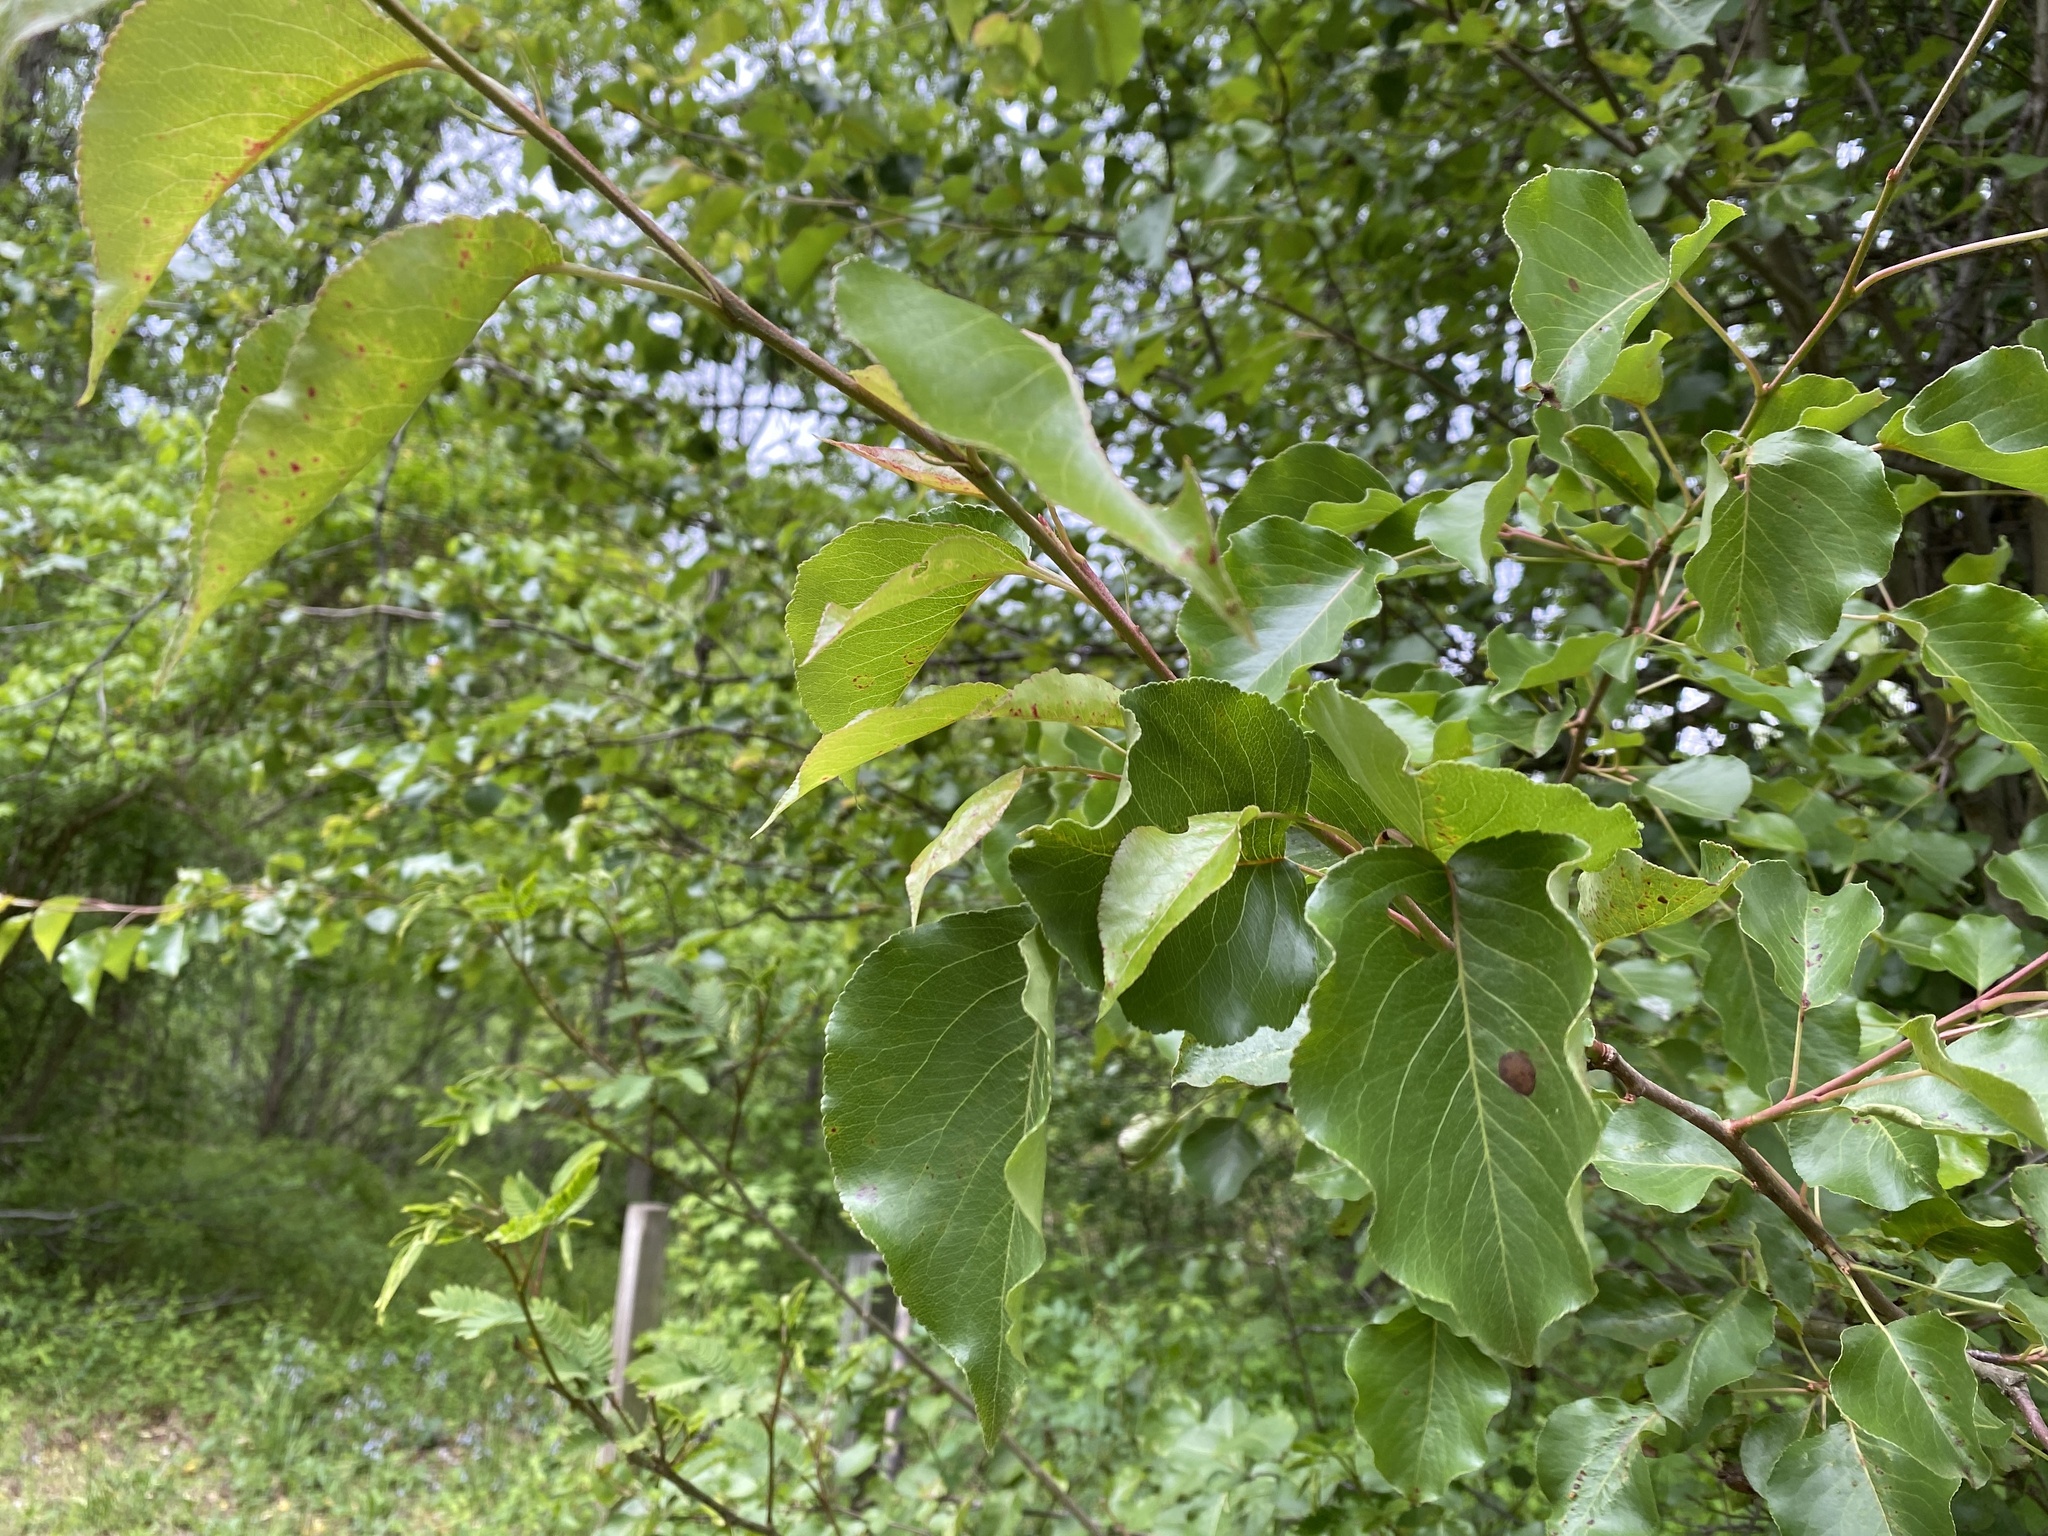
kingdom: Plantae
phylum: Tracheophyta
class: Magnoliopsida
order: Rosales
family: Rosaceae
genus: Pyrus
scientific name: Pyrus calleryana
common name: Callery pear
